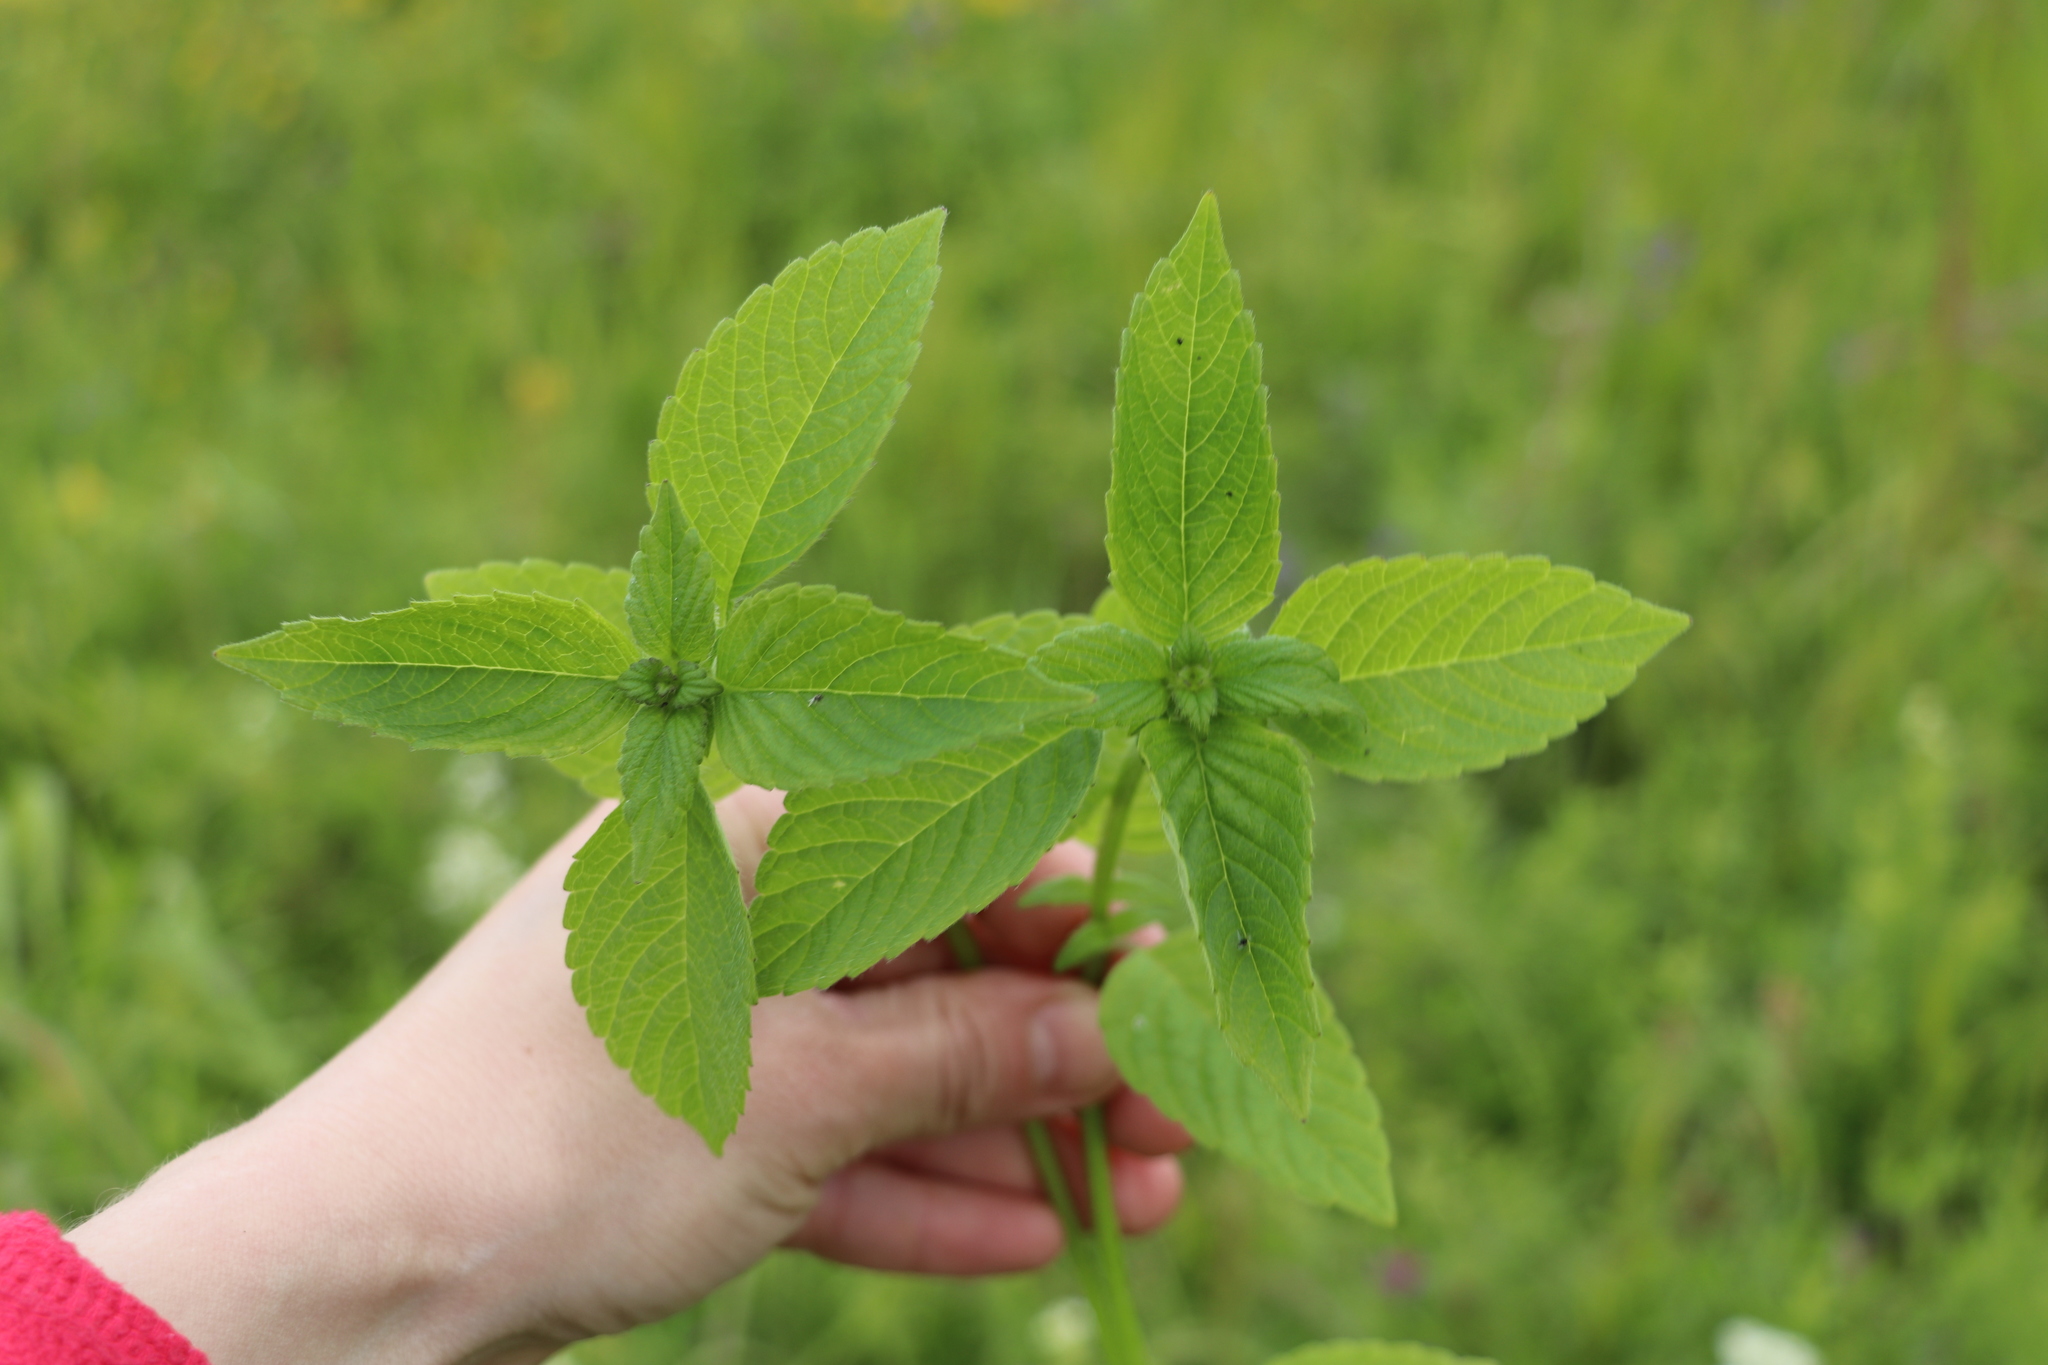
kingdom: Plantae
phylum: Tracheophyta
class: Magnoliopsida
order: Lamiales
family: Lamiaceae
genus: Galeopsis
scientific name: Galeopsis
